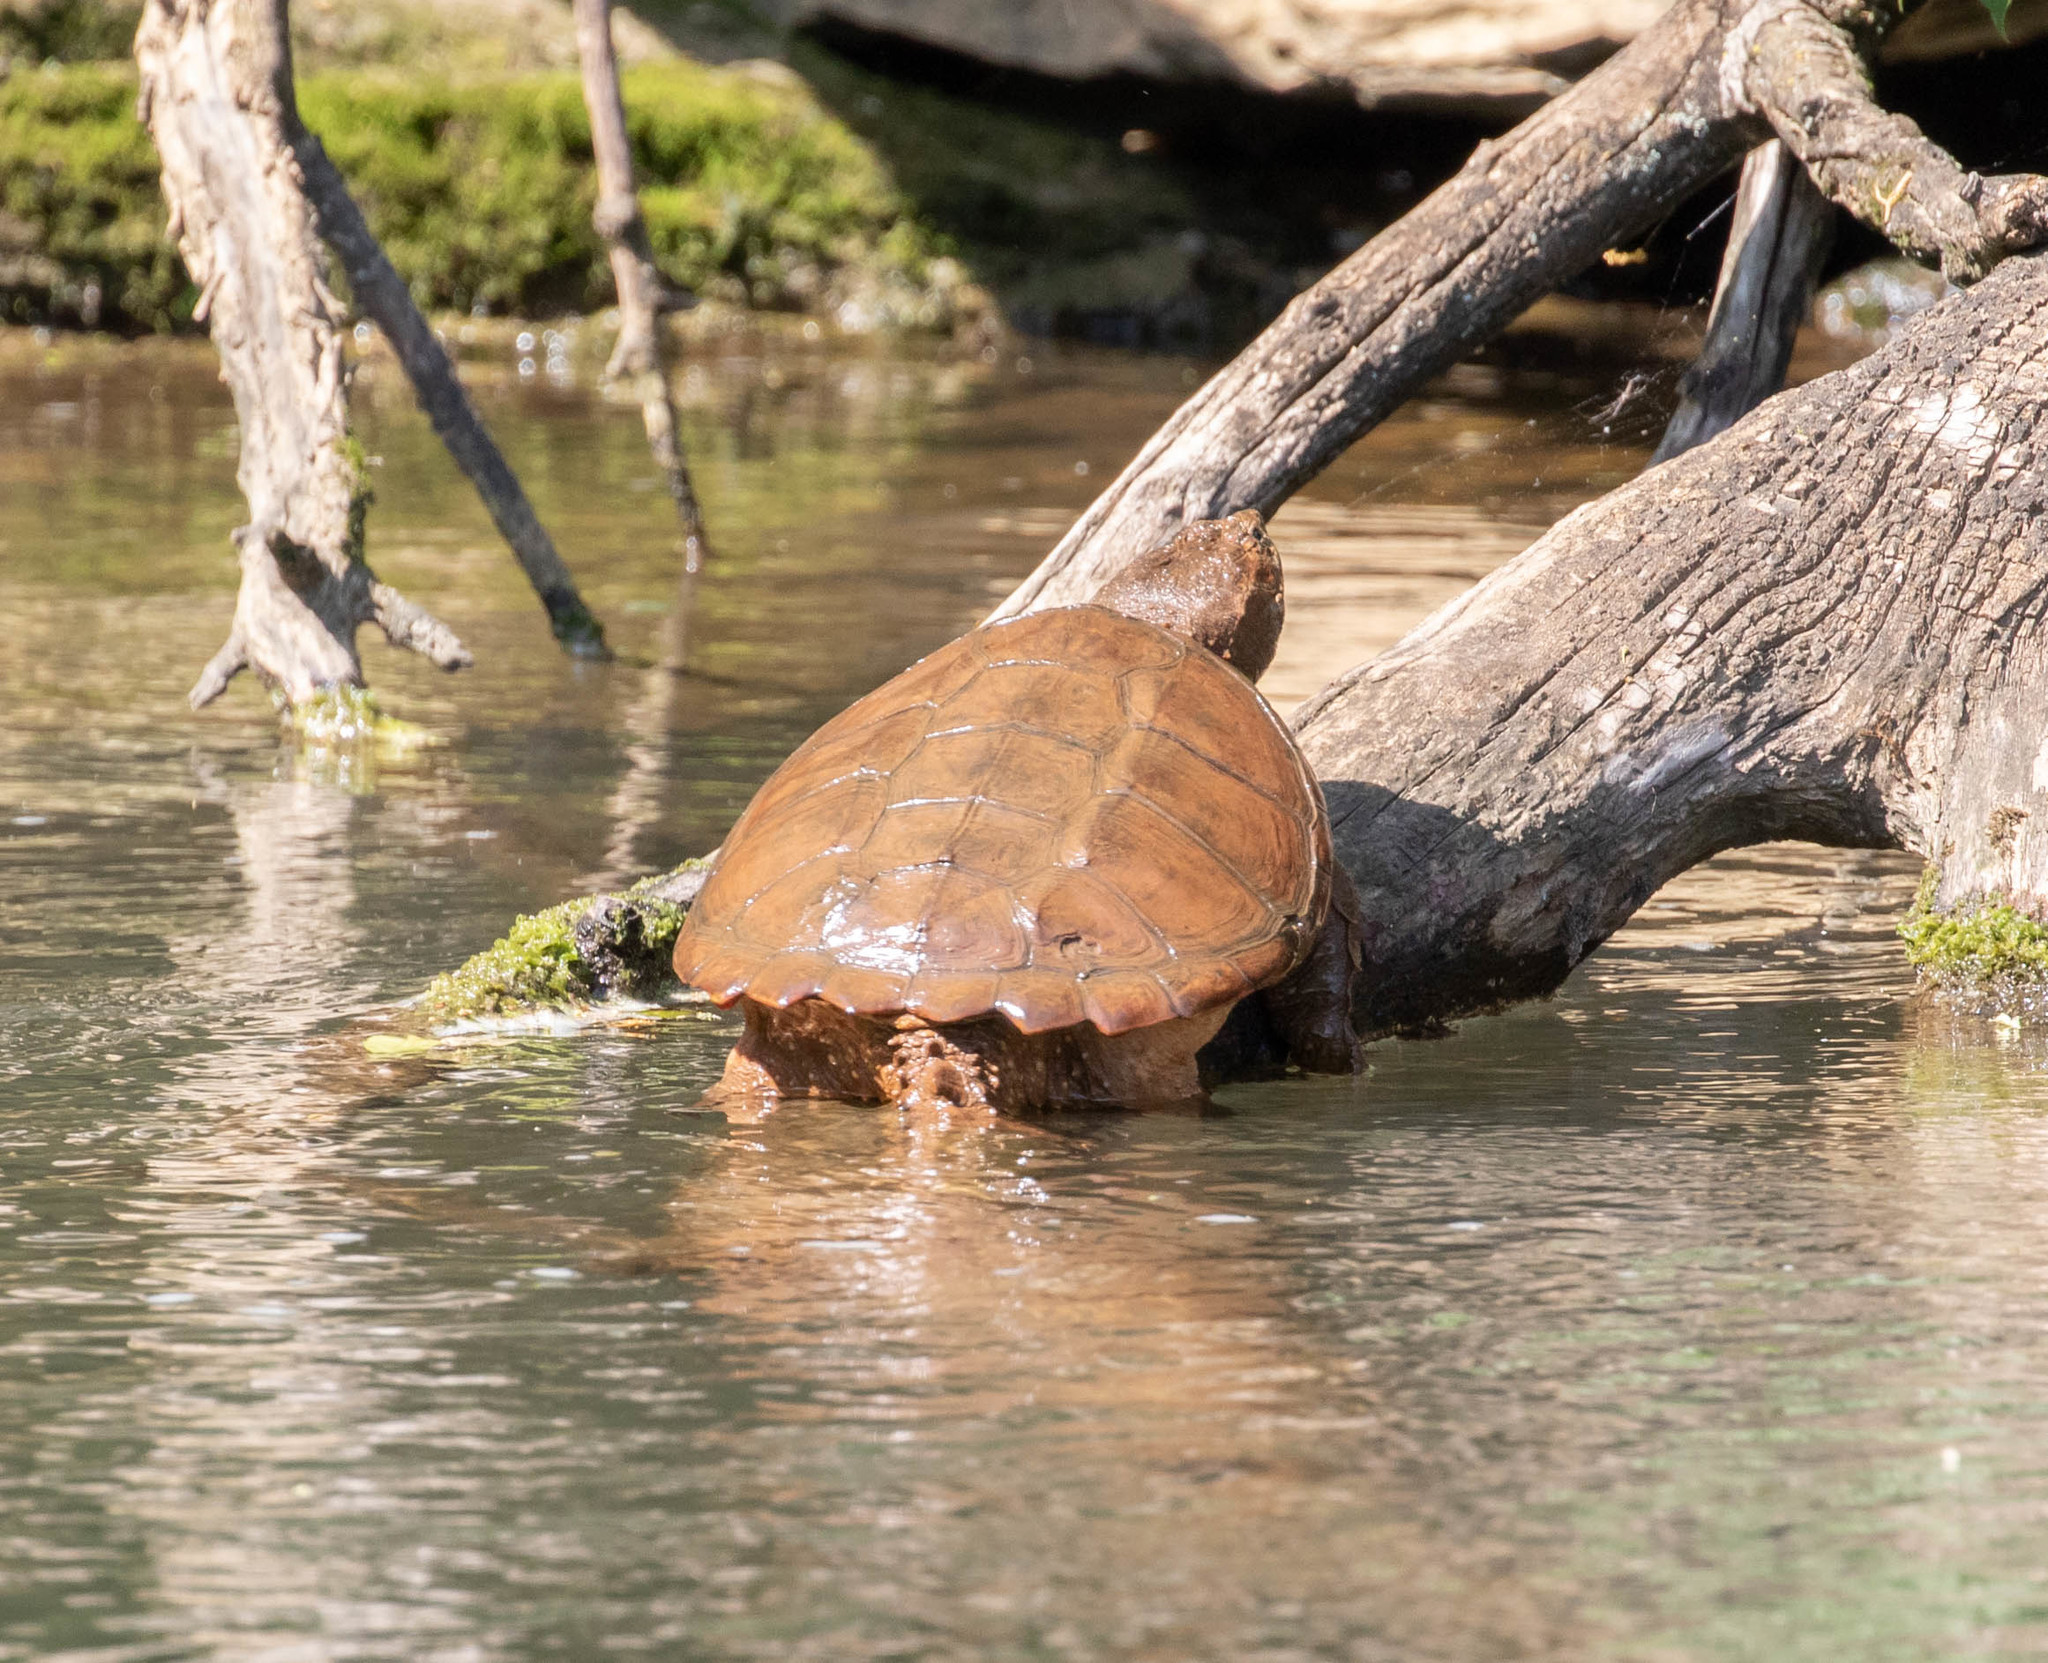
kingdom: Animalia
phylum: Chordata
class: Testudines
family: Chelydridae
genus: Chelydra
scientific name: Chelydra serpentina
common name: Common snapping turtle
